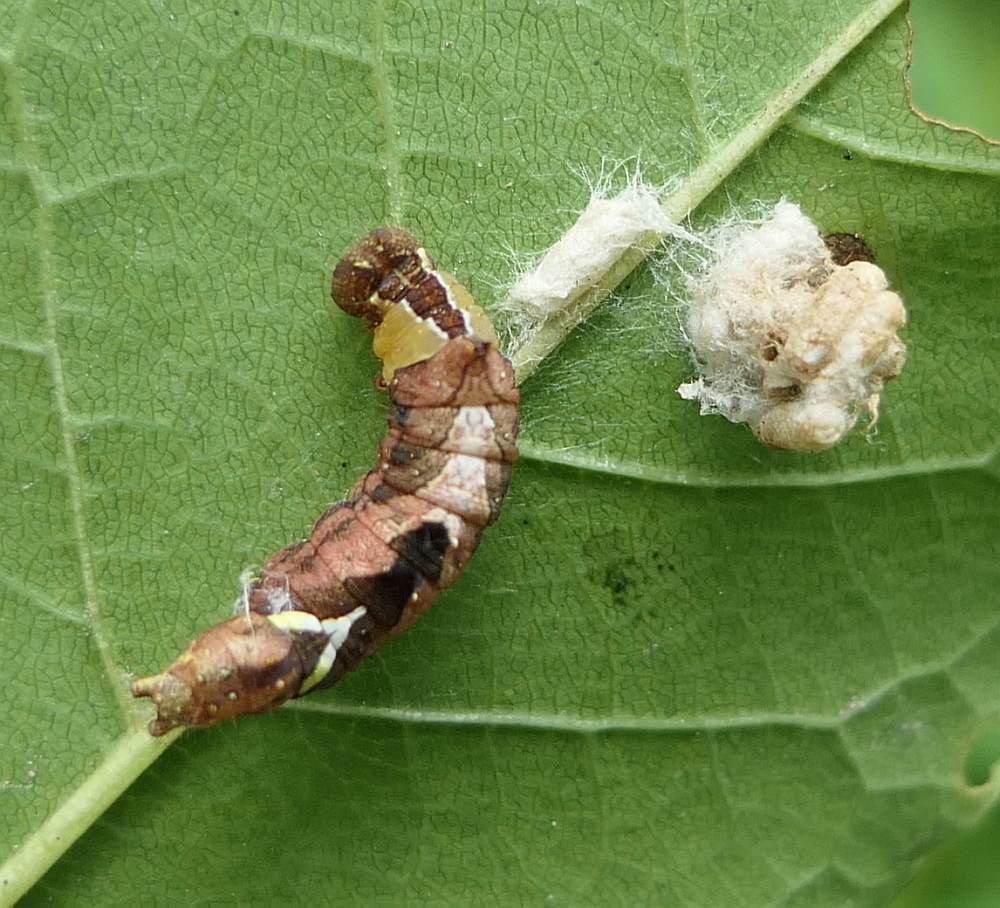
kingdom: Animalia
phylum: Arthropoda
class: Insecta
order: Lepidoptera
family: Notodontidae
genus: Schizura
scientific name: Schizura
